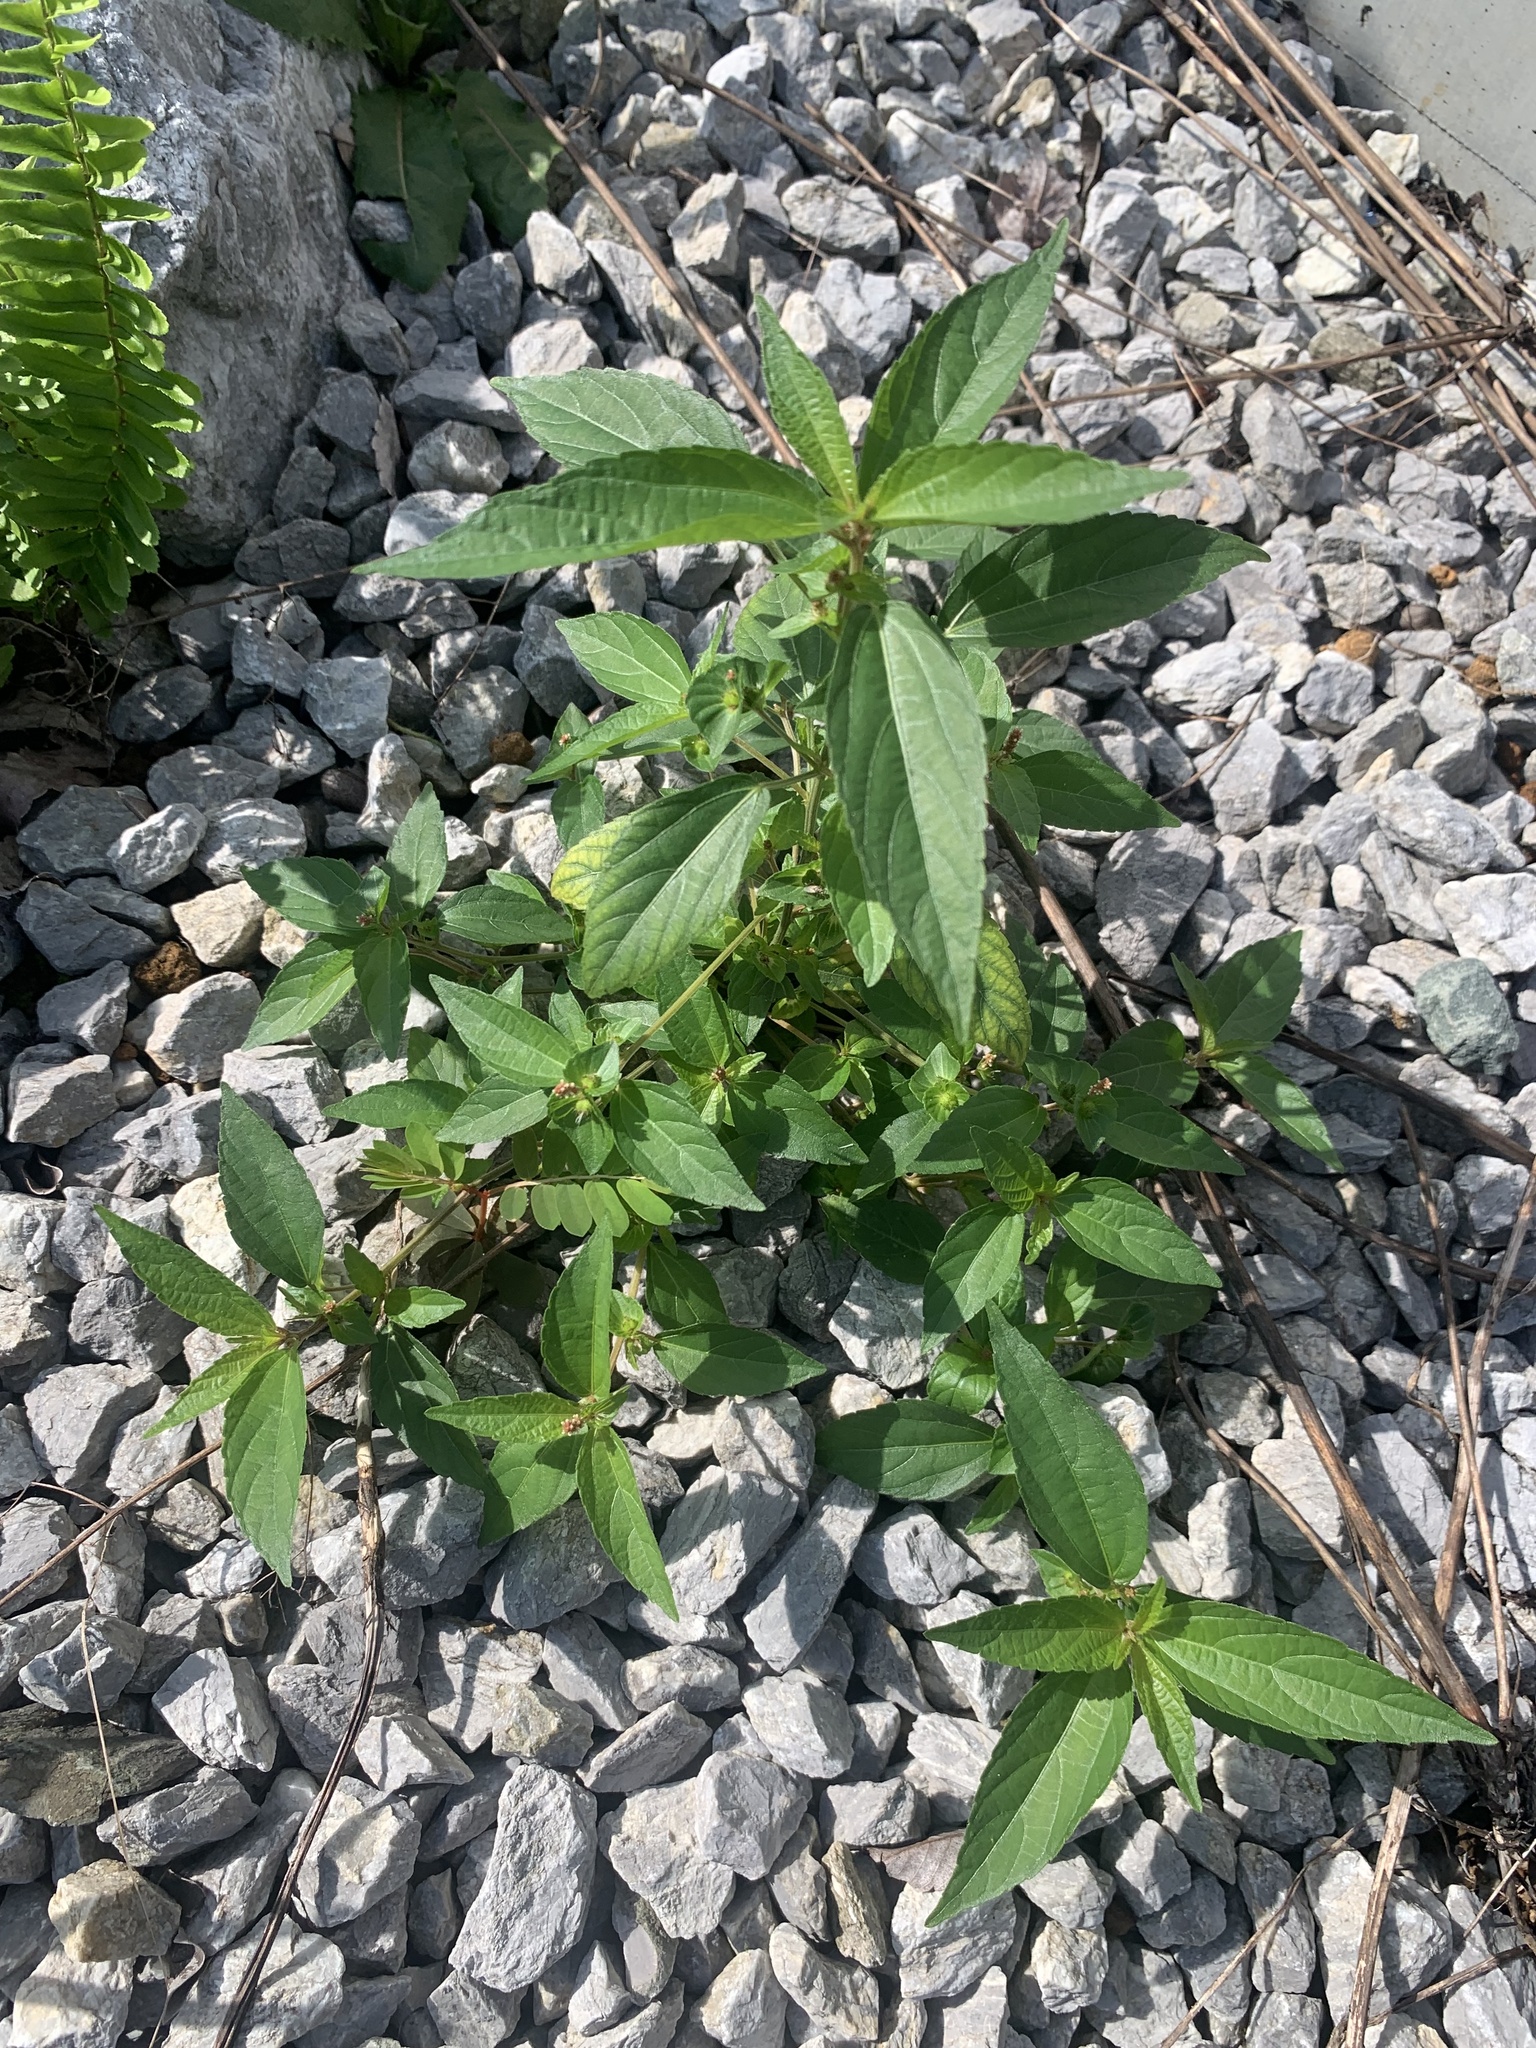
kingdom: Plantae
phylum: Tracheophyta
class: Magnoliopsida
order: Malpighiales
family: Euphorbiaceae
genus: Acalypha
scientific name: Acalypha australis
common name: Asian copperleaf
